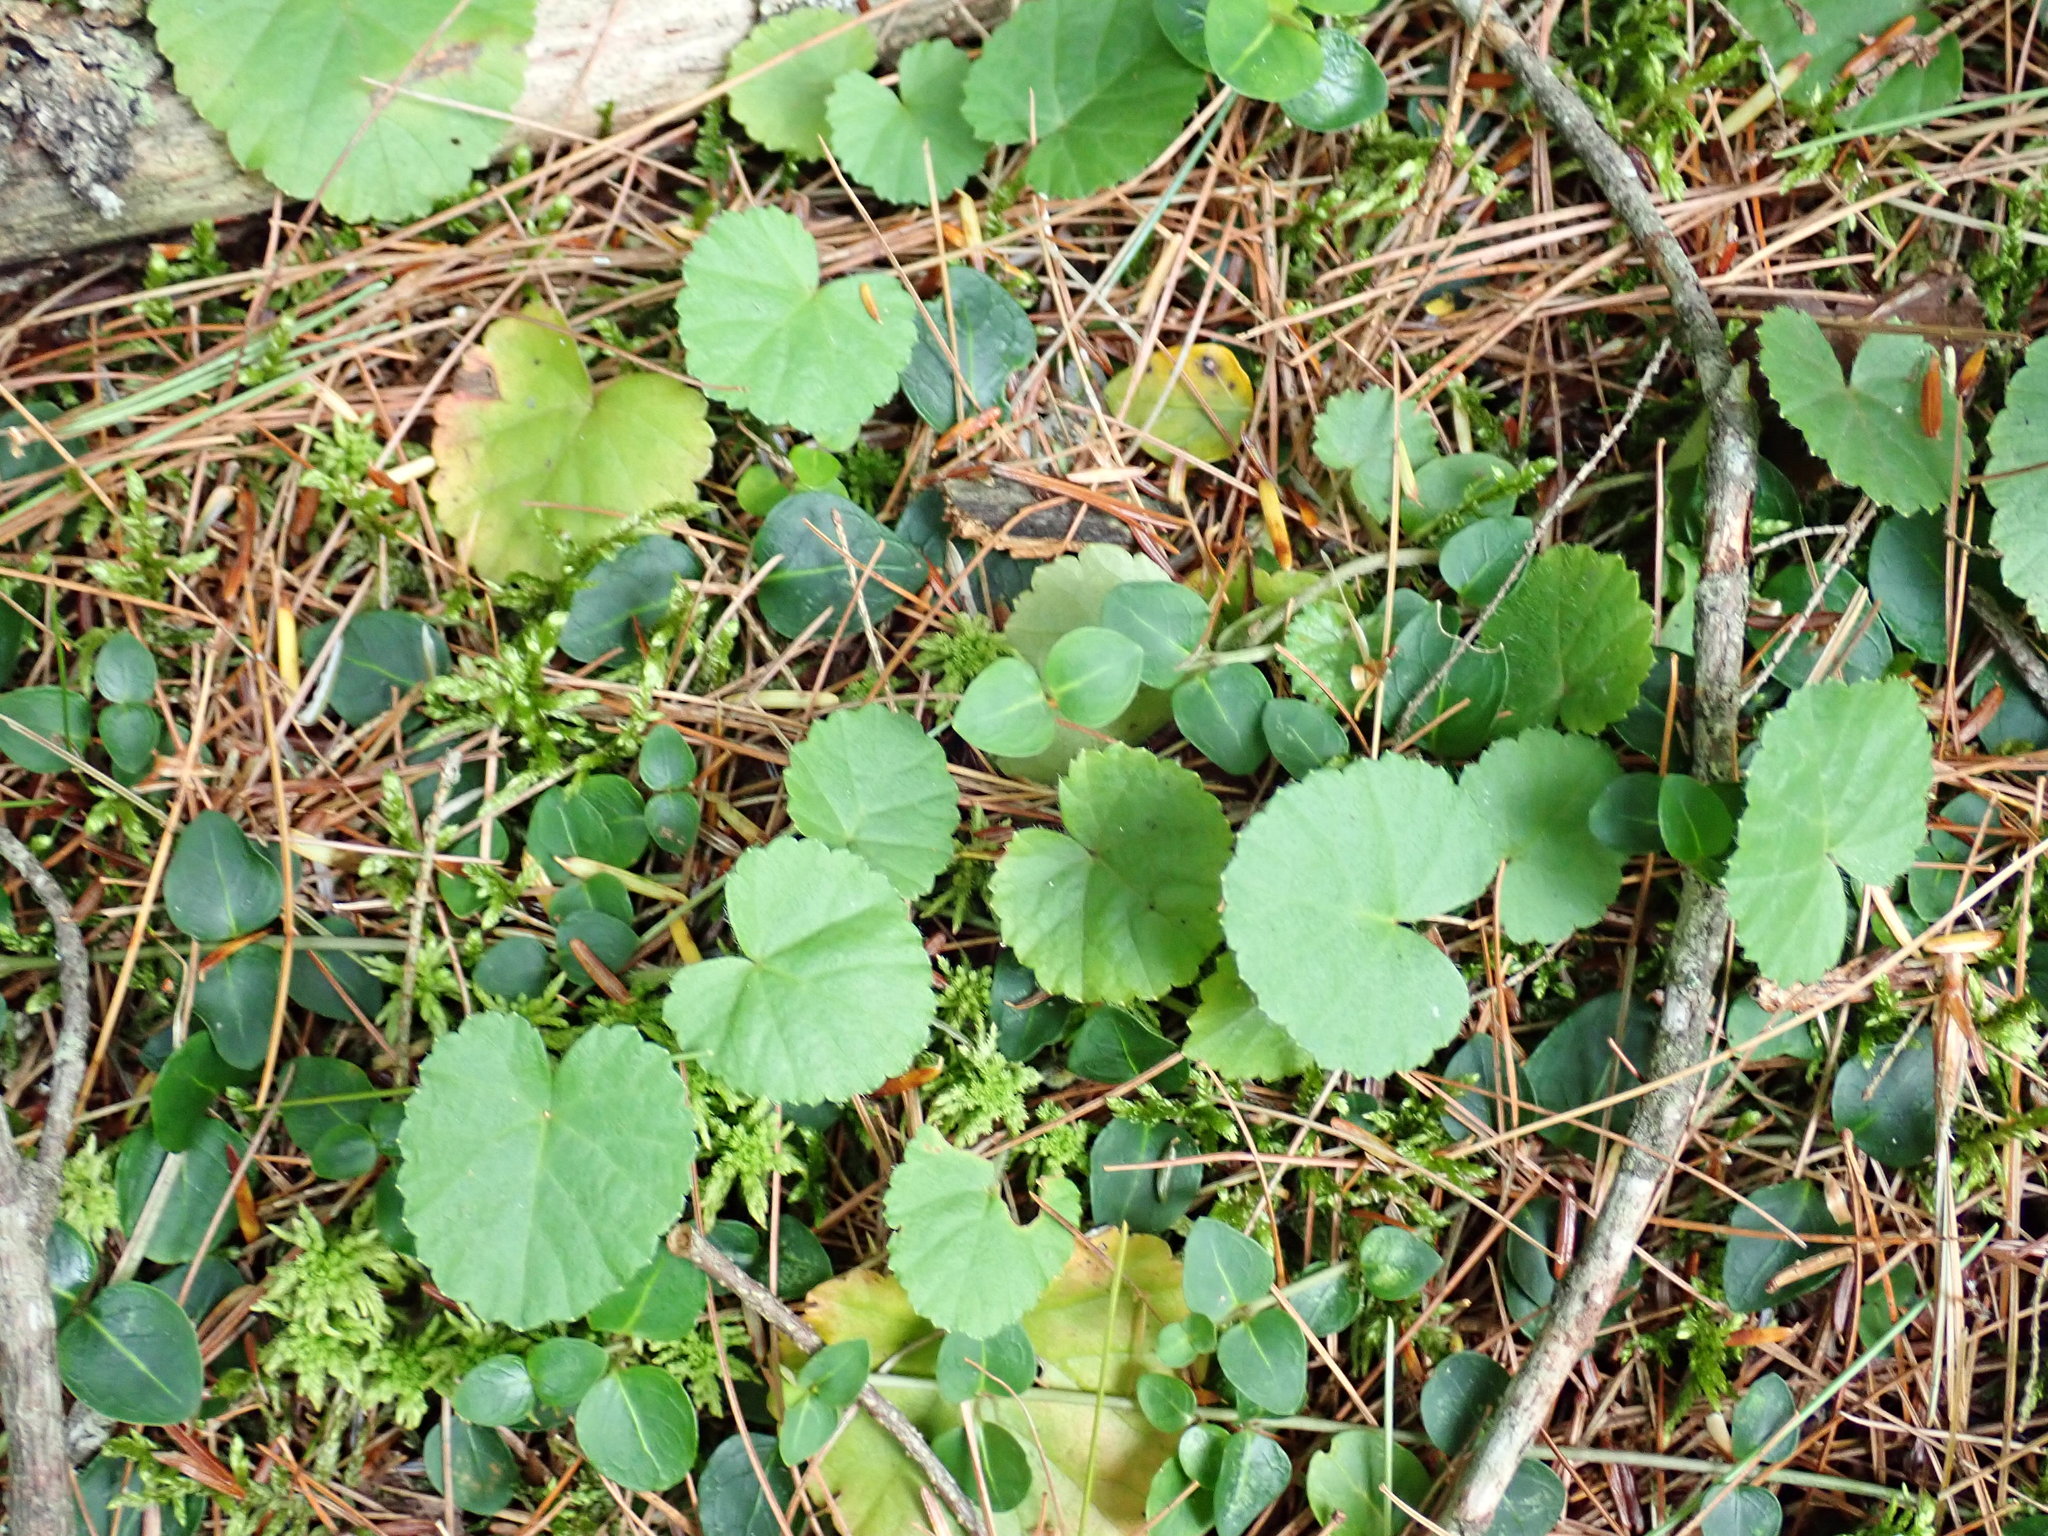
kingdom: Plantae
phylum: Tracheophyta
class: Magnoliopsida
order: Rosales
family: Rosaceae
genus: Dalibarda
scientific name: Dalibarda repens
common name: Dewdrop
